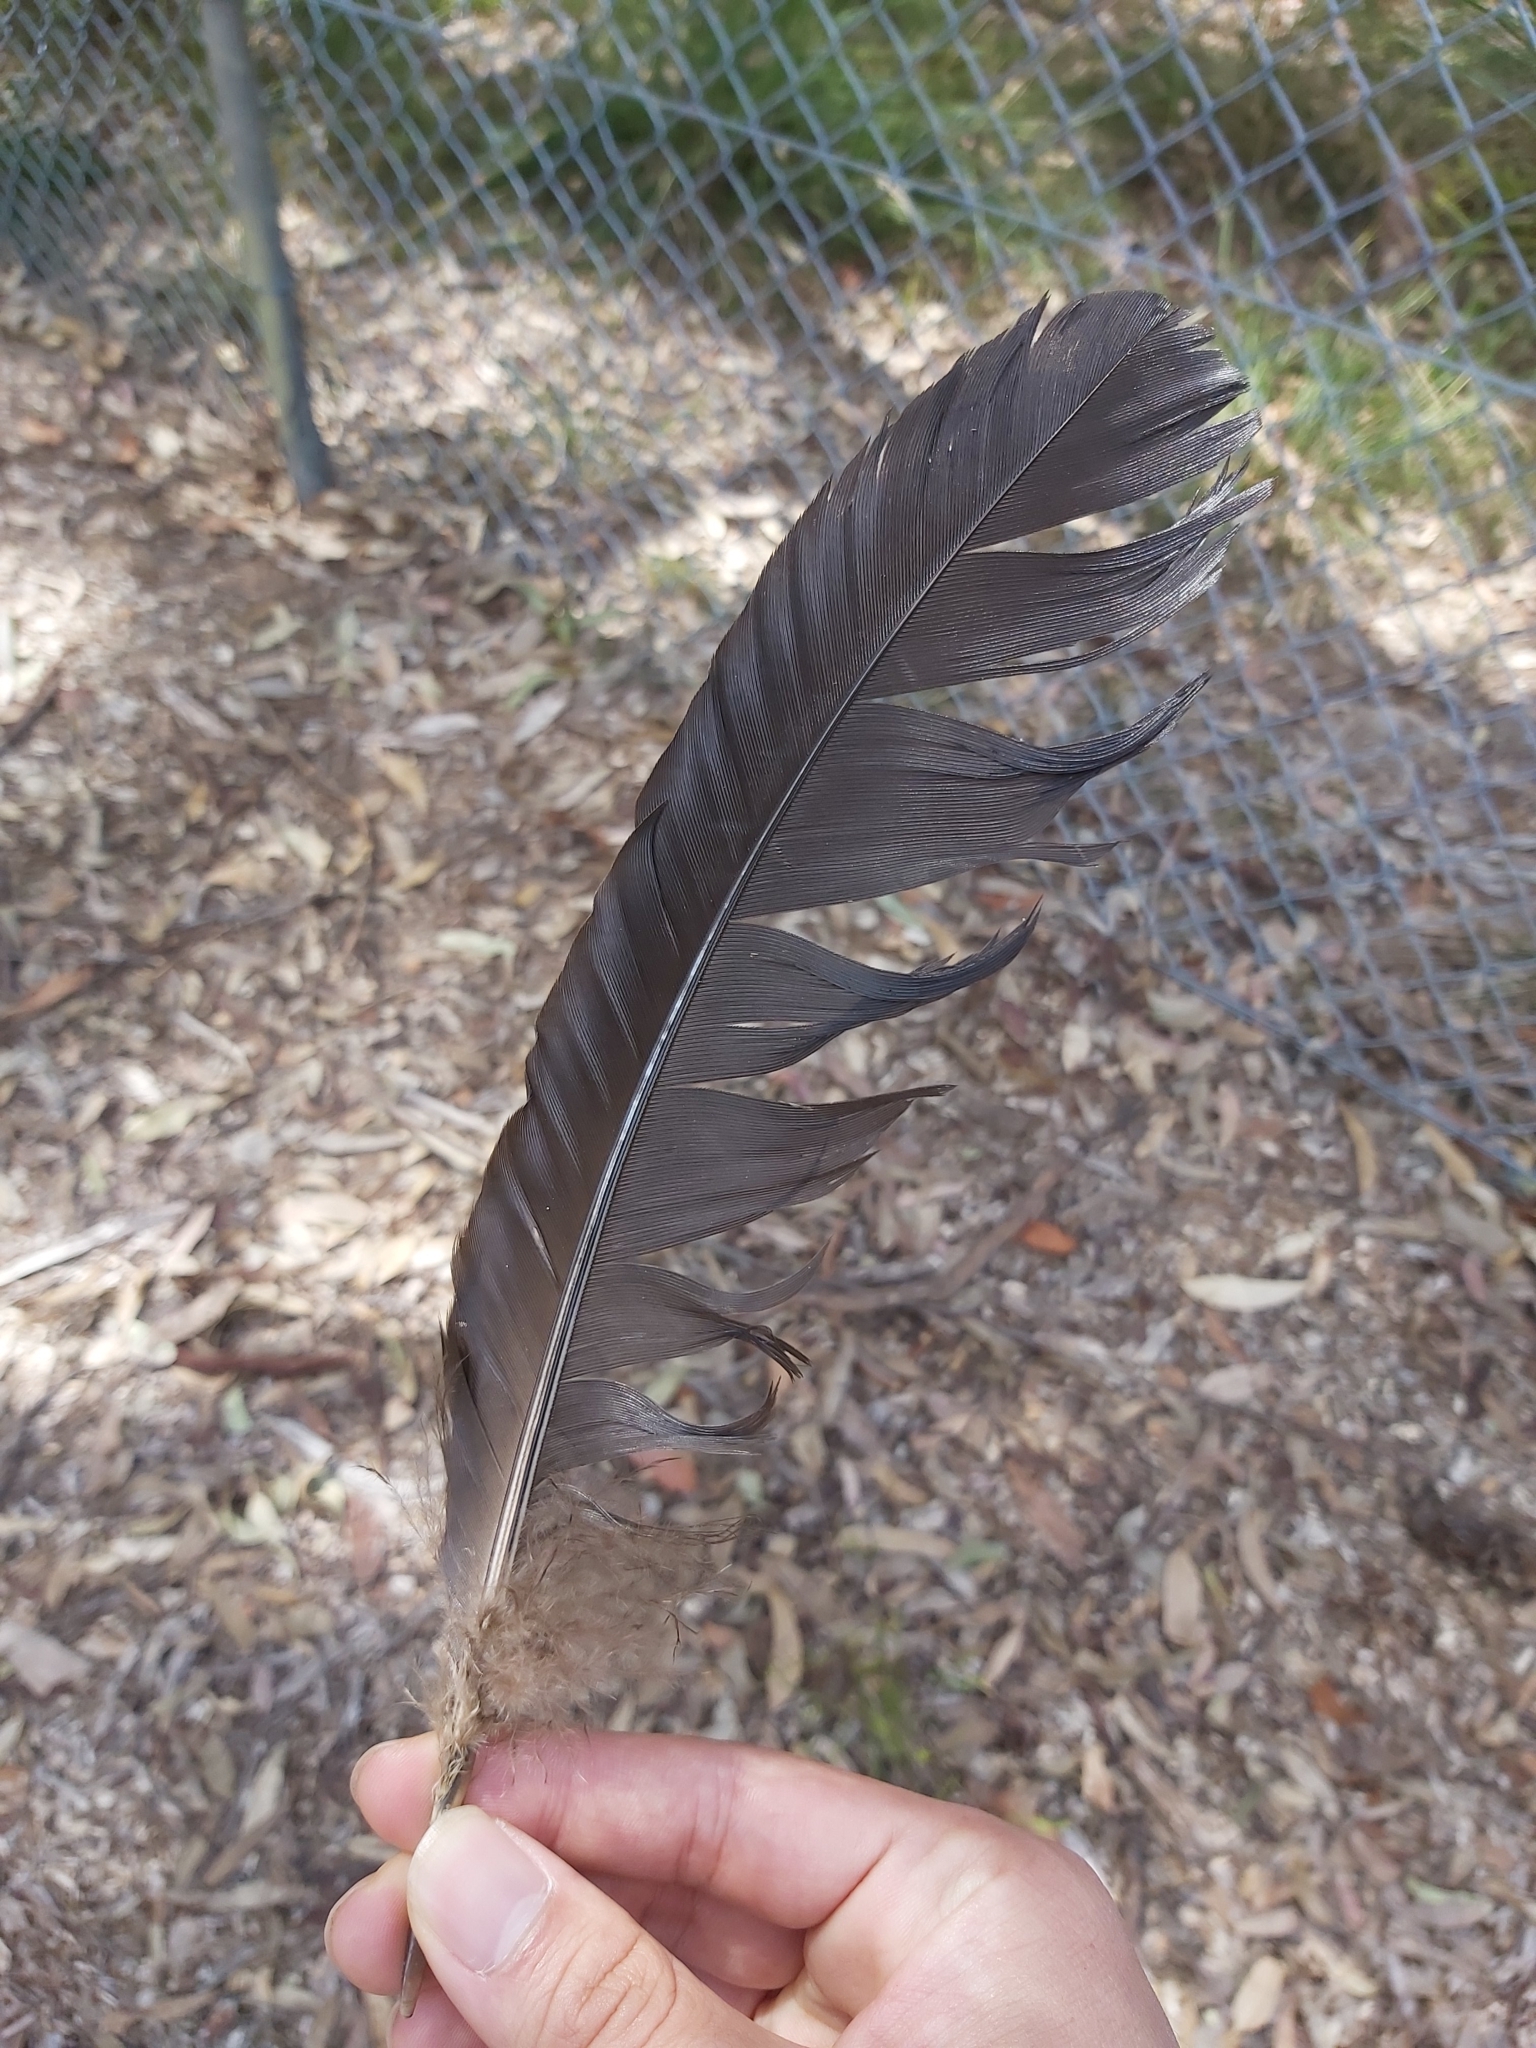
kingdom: Animalia
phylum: Chordata
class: Aves
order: Galliformes
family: Megapodiidae
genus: Alectura
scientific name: Alectura lathami
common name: Australian brushturkey
